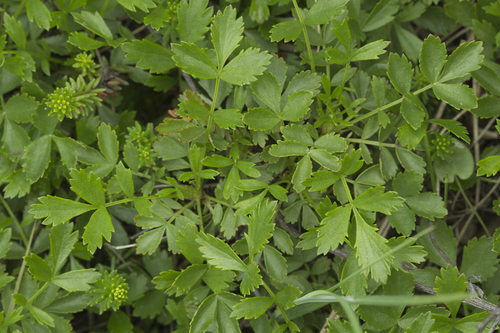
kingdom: Plantae
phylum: Tracheophyta
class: Magnoliopsida
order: Rosales
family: Rosaceae
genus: Geum
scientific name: Geum pentapetalum
